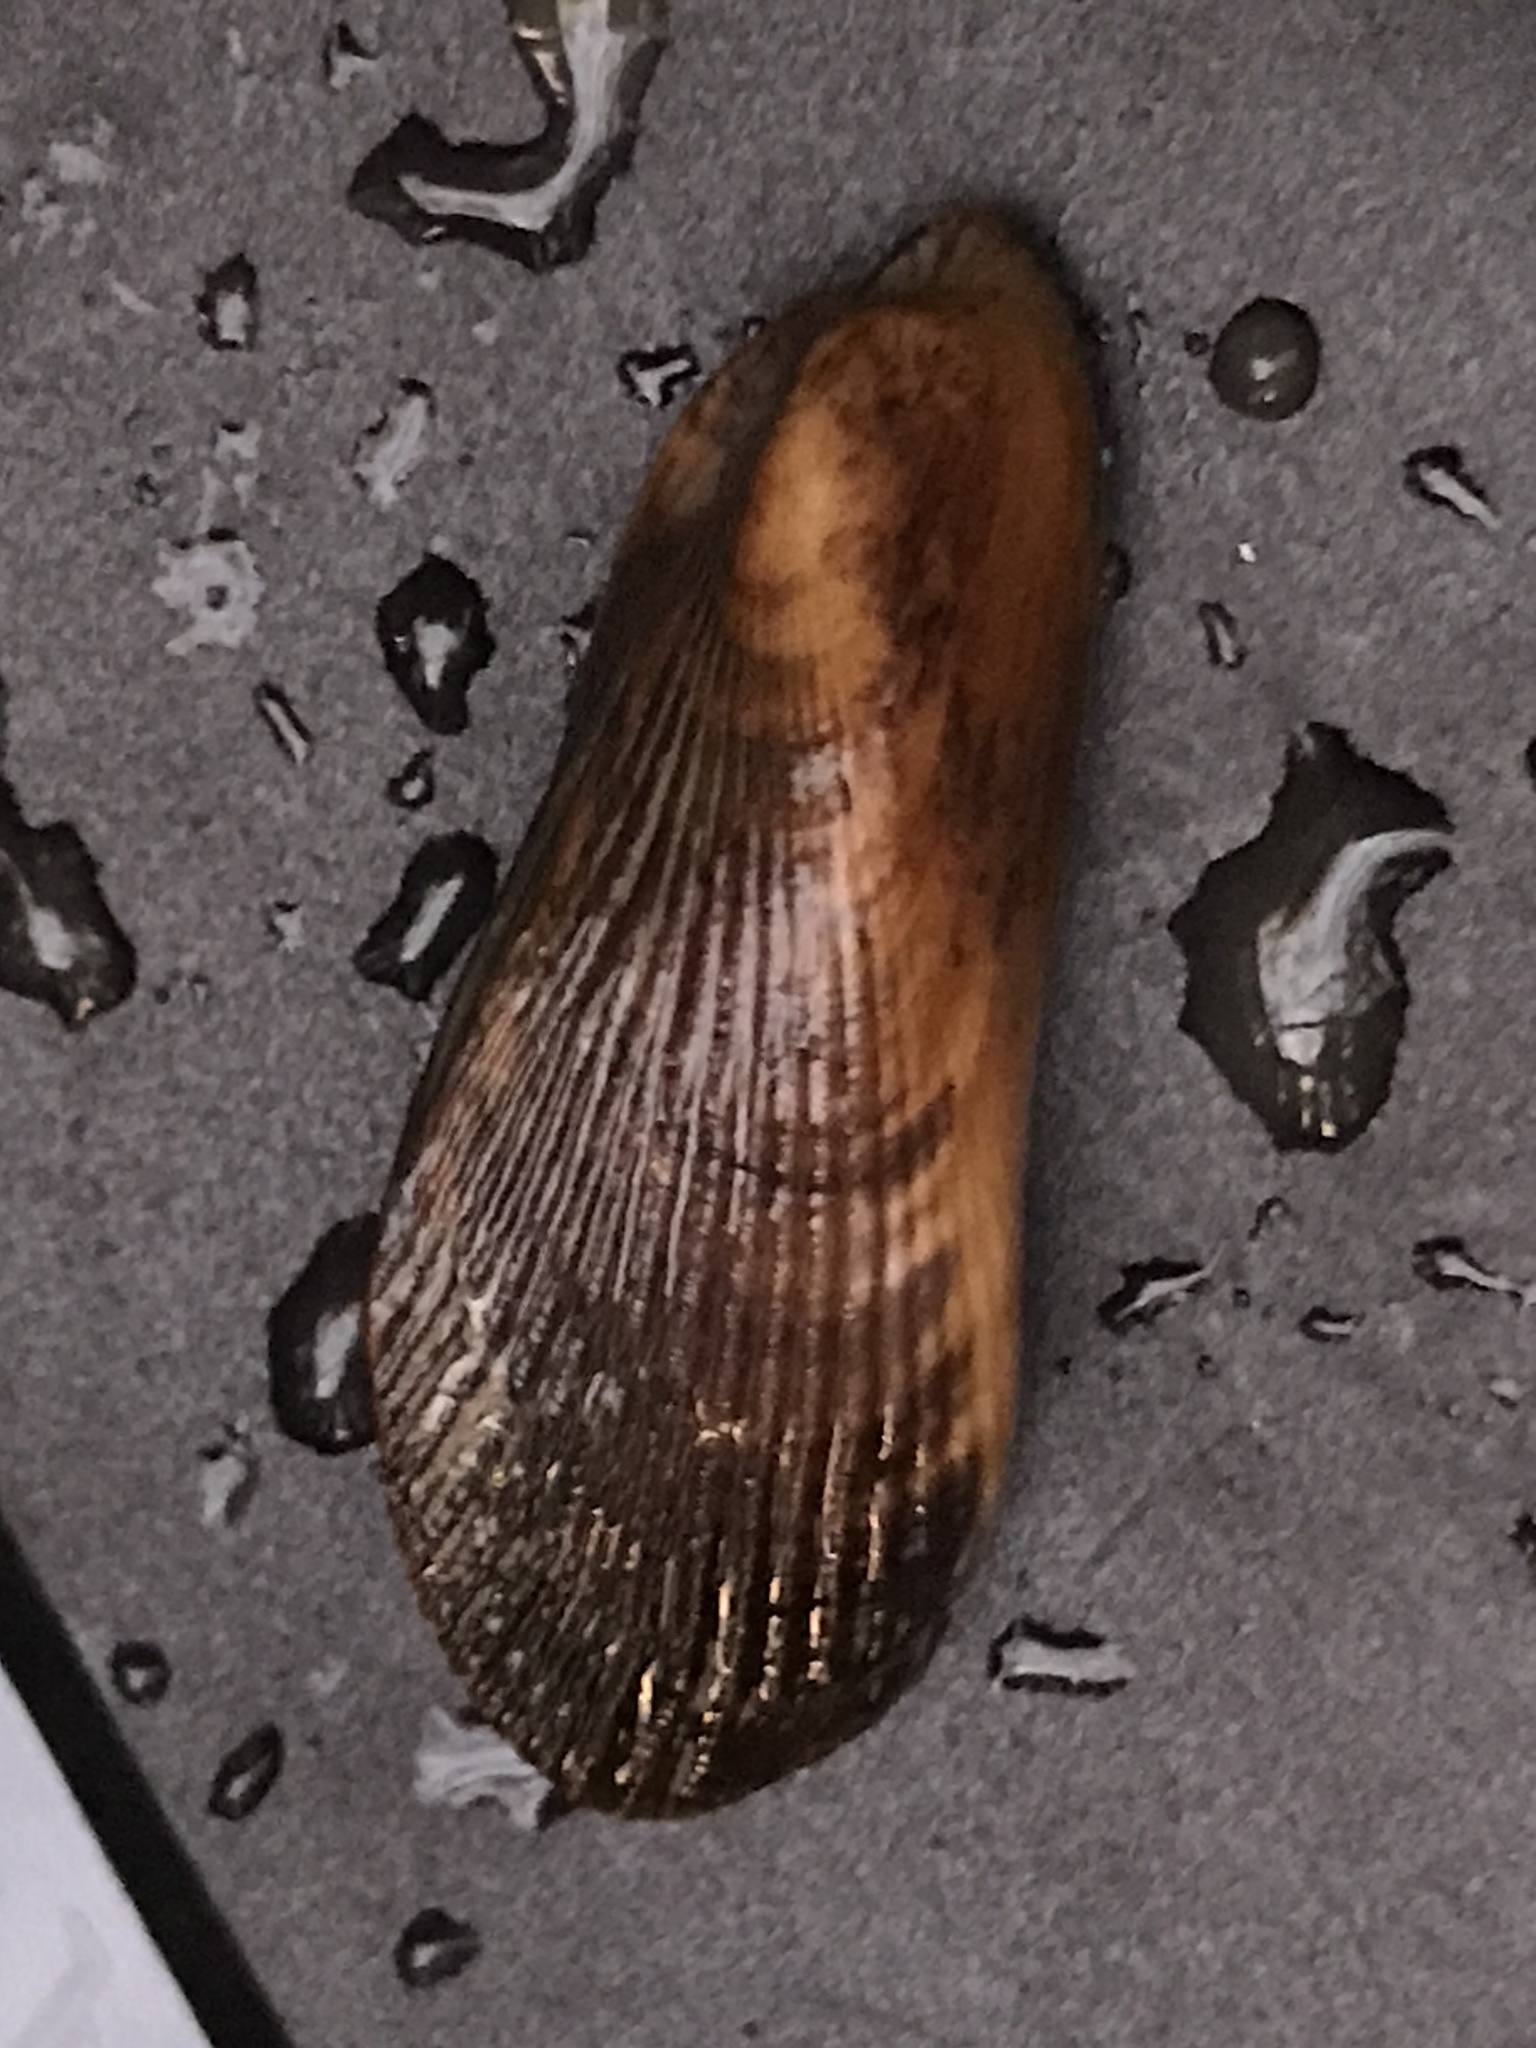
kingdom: Animalia
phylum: Mollusca
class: Bivalvia
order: Mytilida
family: Mytilidae
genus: Geukensia
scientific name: Geukensia demissa
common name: Ribbed mussel
